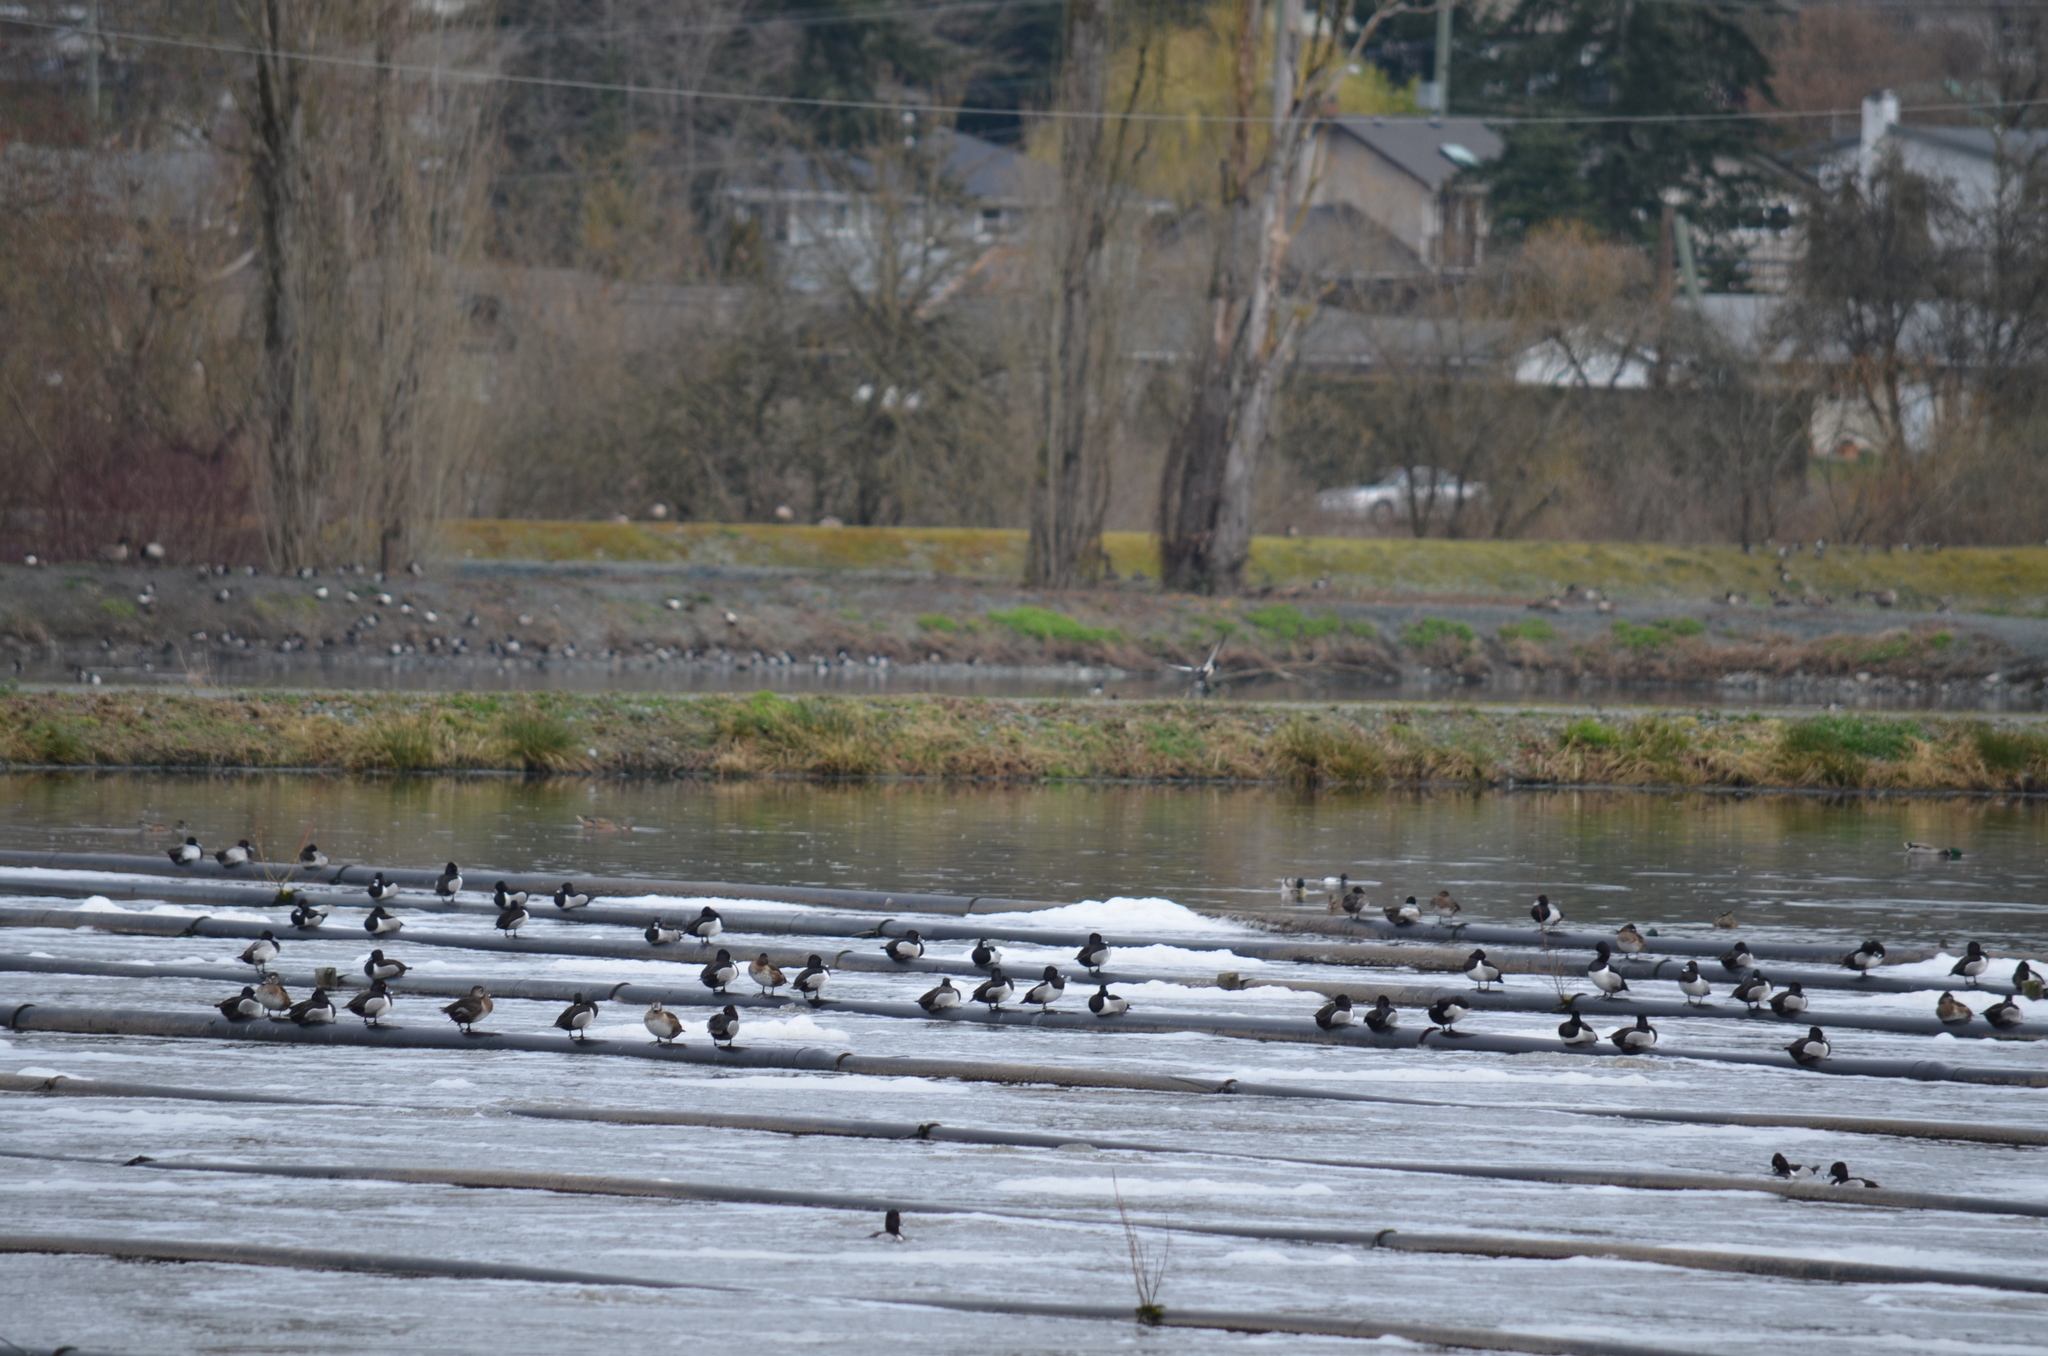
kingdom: Animalia
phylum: Chordata
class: Aves
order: Anseriformes
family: Anatidae
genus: Aythya
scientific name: Aythya collaris
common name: Ring-necked duck
